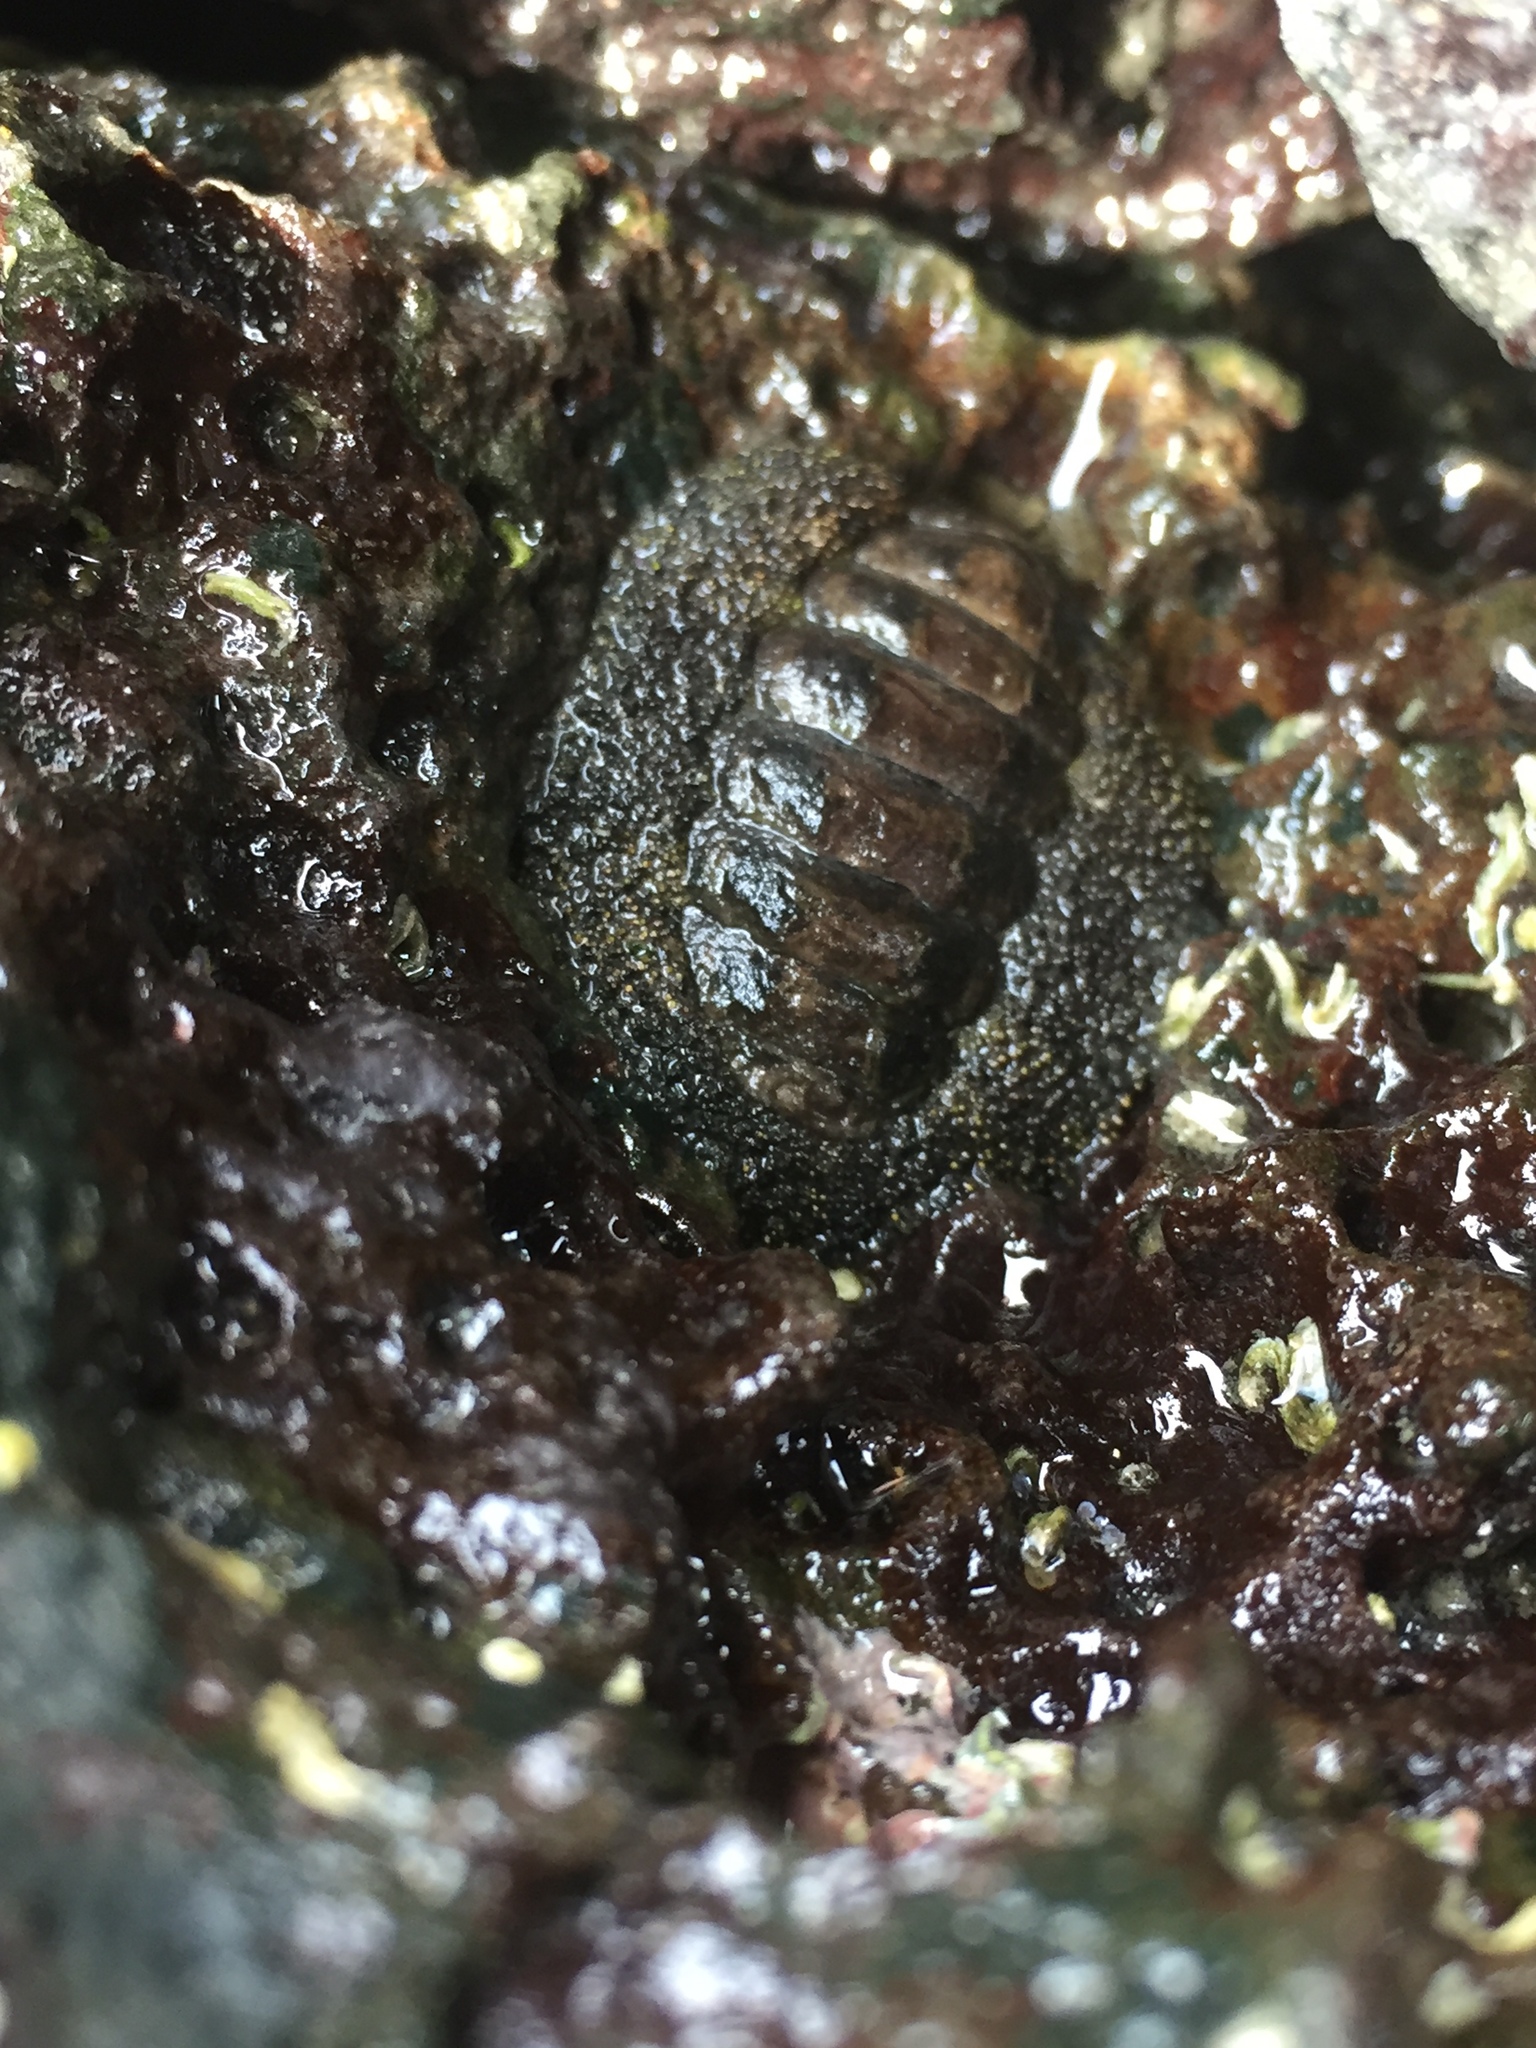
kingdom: Animalia
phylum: Mollusca
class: Polyplacophora
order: Chitonida
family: Chitonidae
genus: Liolophura
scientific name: Liolophura japonica
